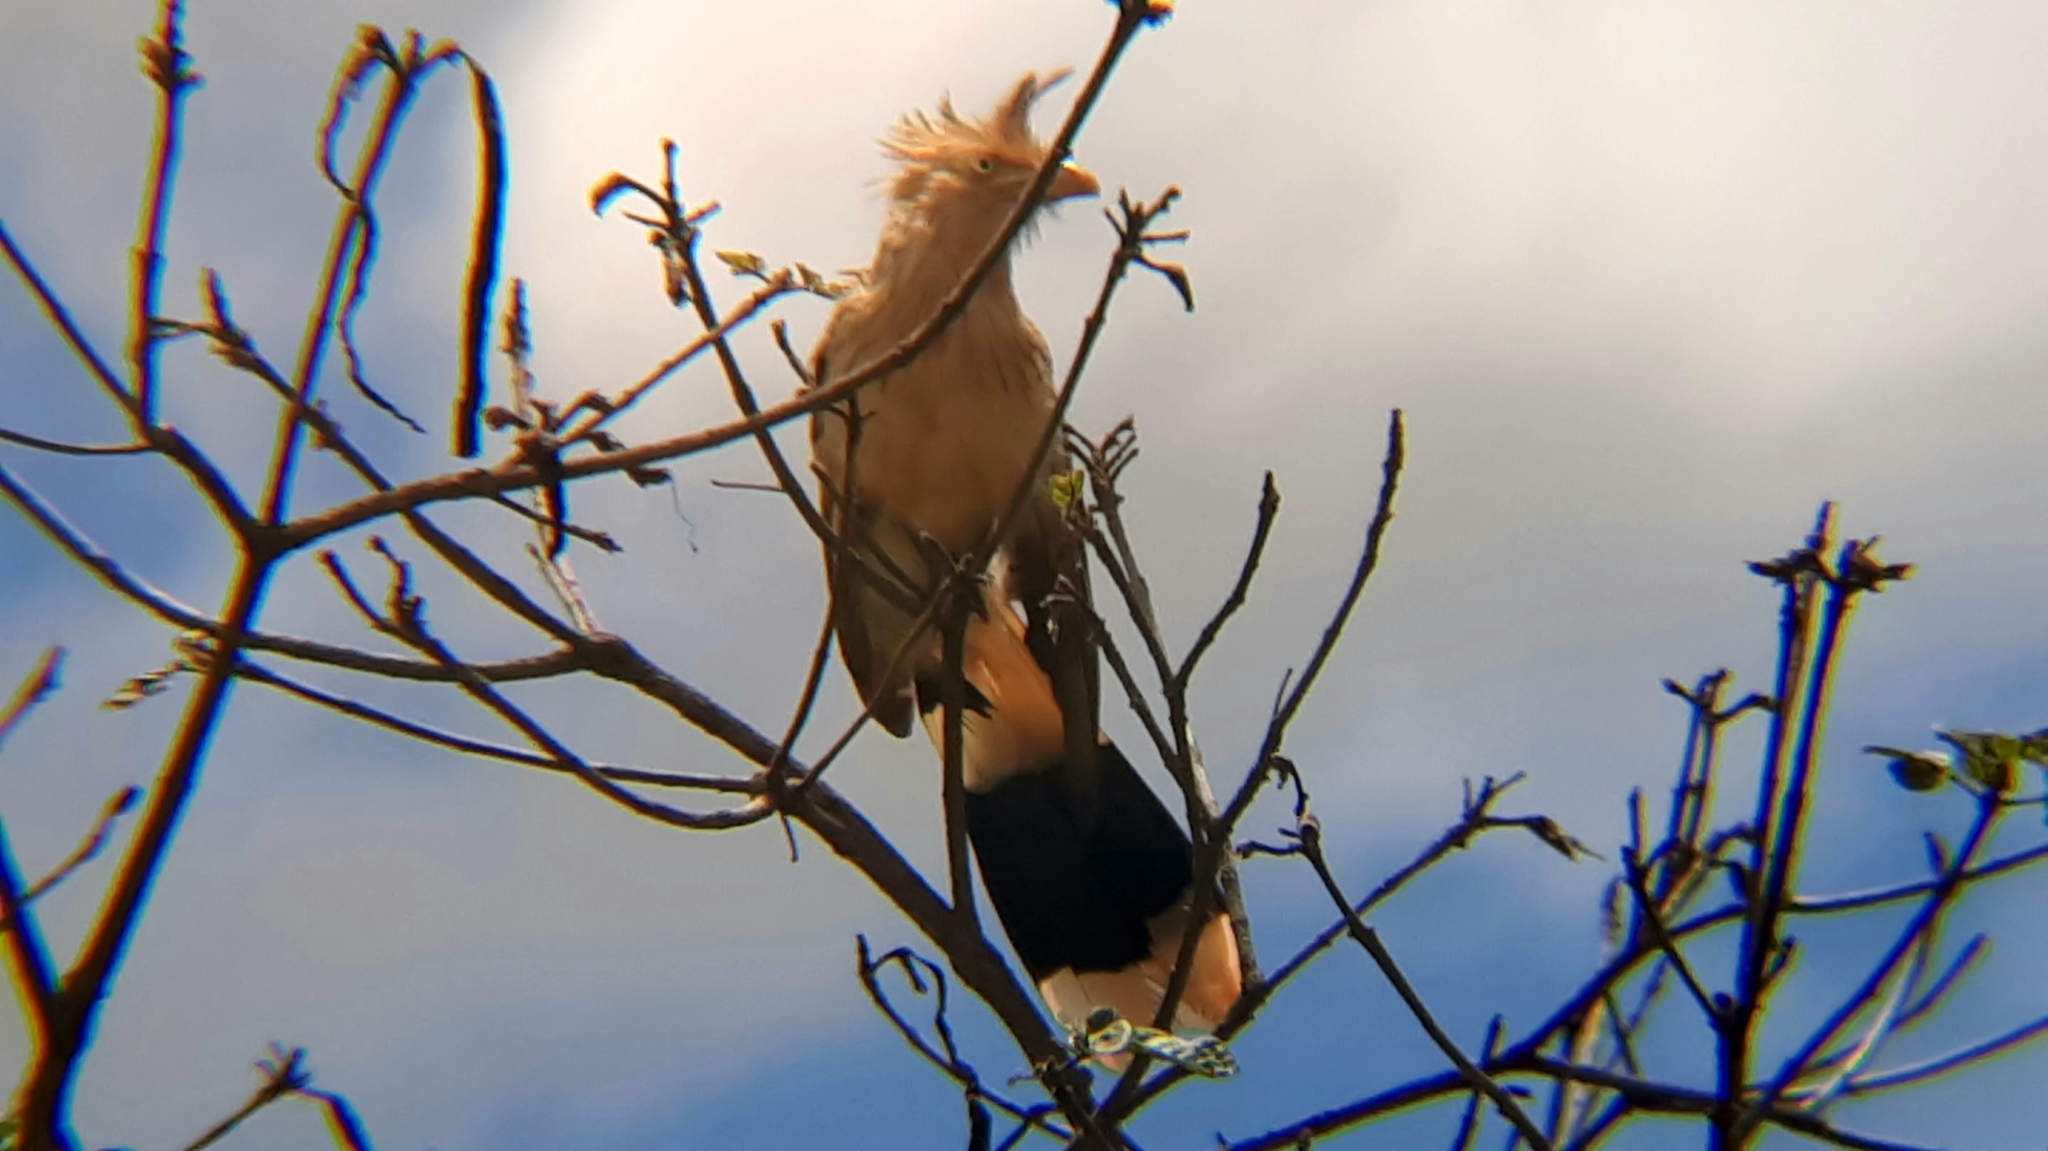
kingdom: Animalia
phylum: Chordata
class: Aves
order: Cuculiformes
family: Cuculidae
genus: Guira
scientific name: Guira guira
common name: Guira cuckoo
